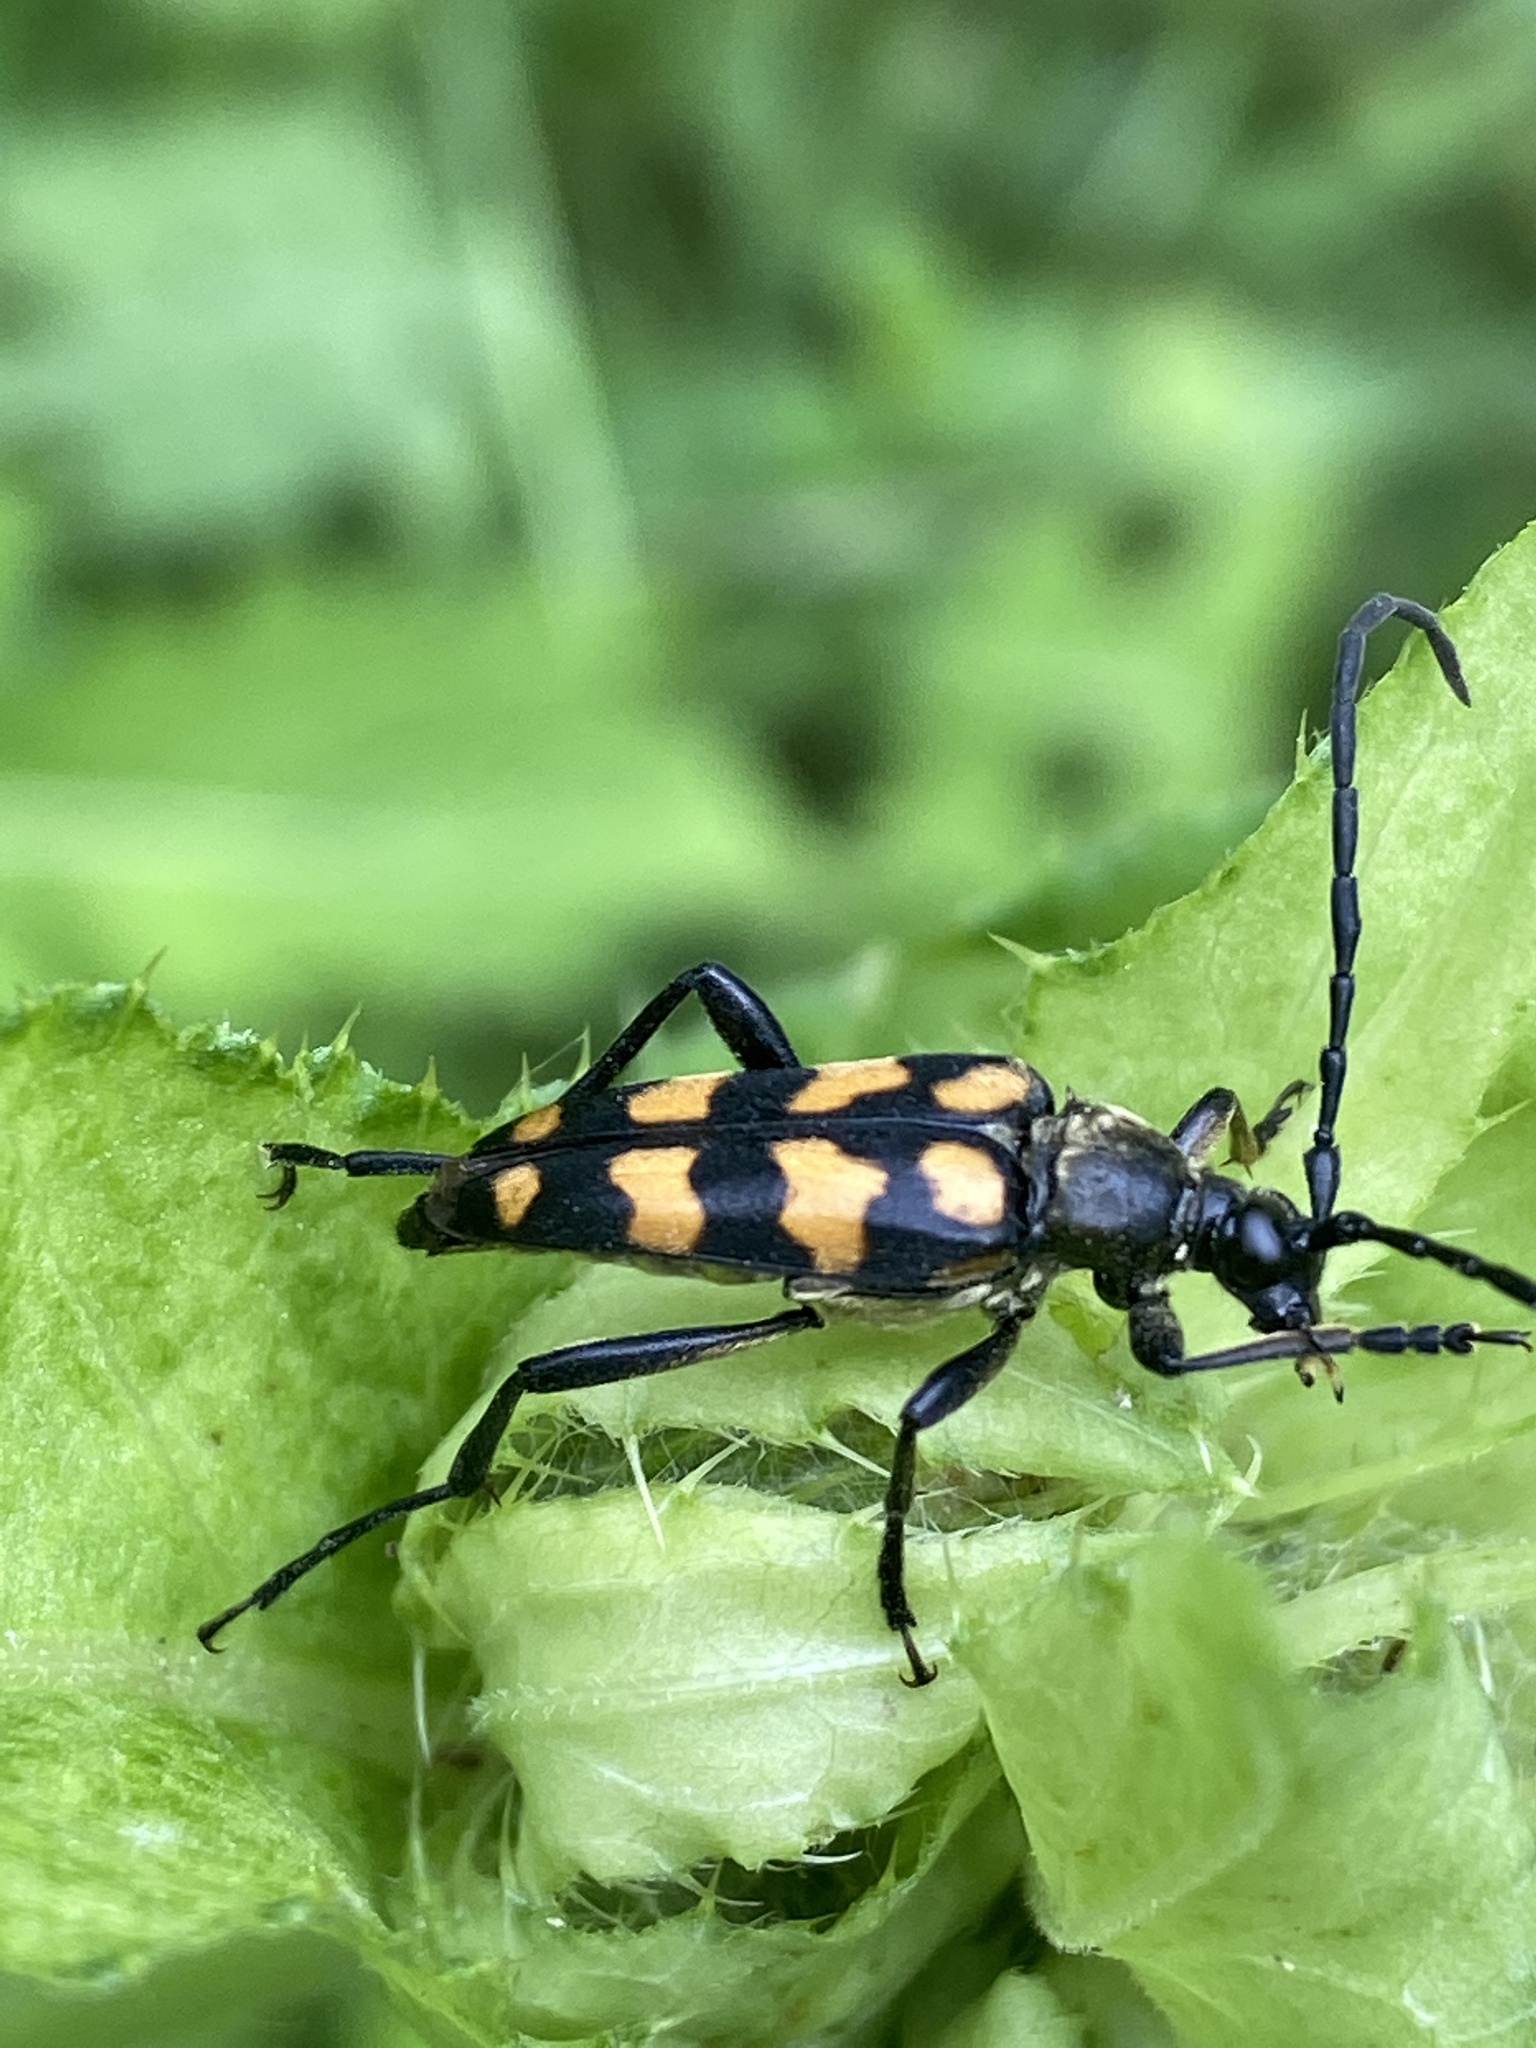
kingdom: Animalia
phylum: Arthropoda
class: Insecta
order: Coleoptera
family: Cerambycidae
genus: Leptura
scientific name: Leptura quadrifasciata
